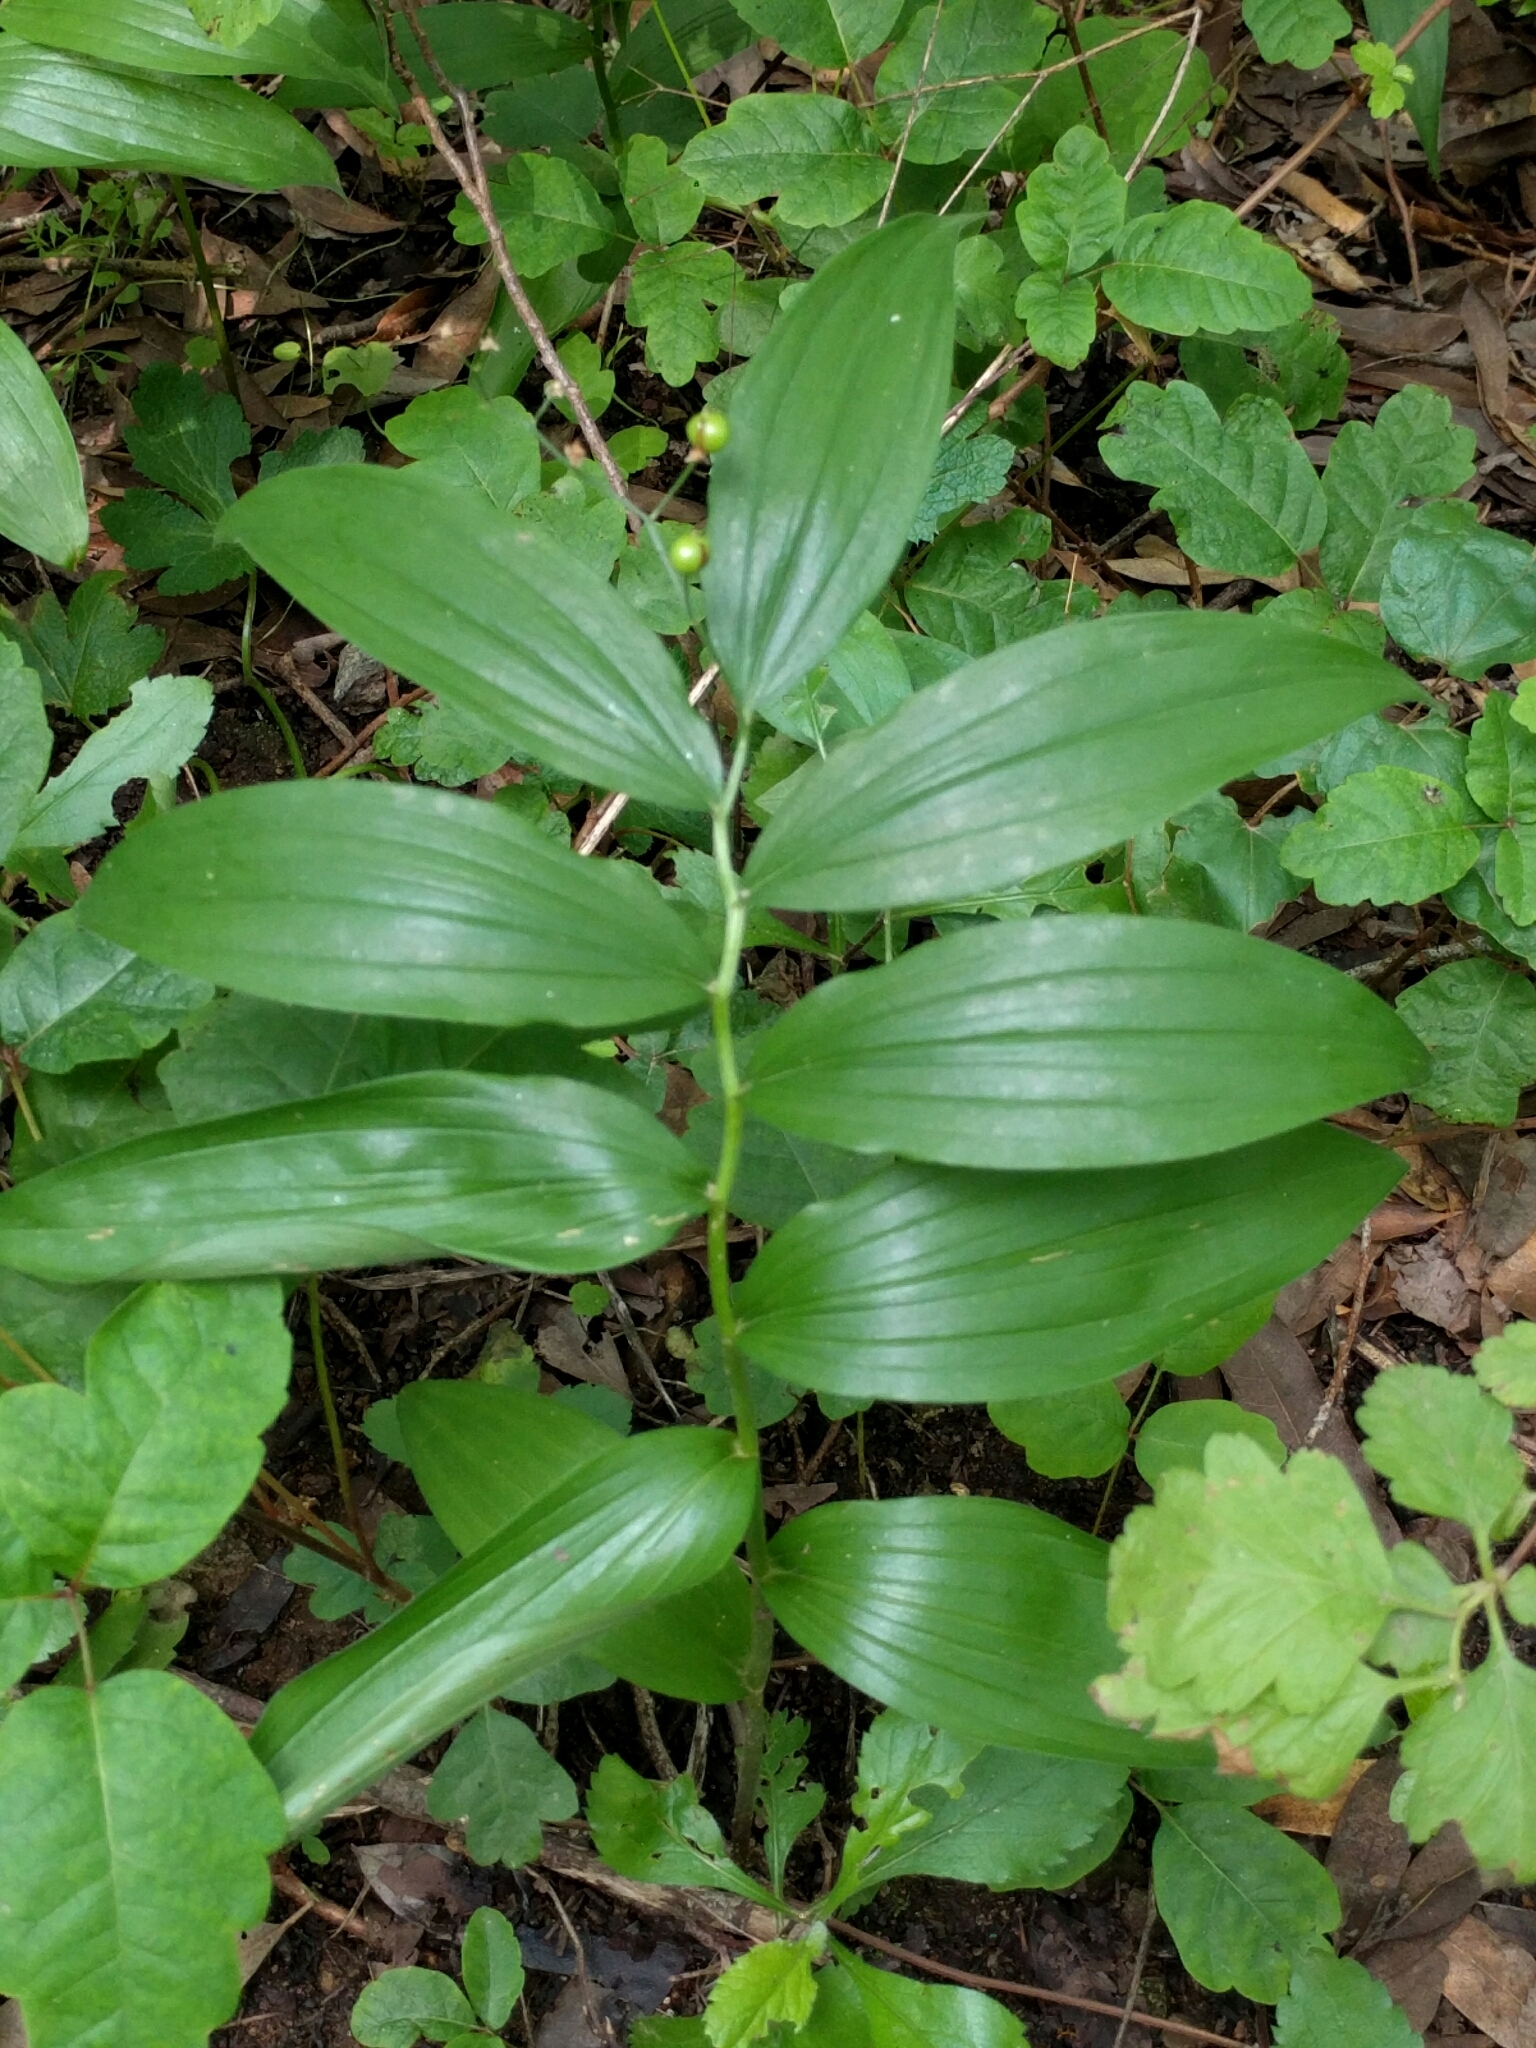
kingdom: Plantae
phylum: Tracheophyta
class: Liliopsida
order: Asparagales
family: Asparagaceae
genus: Maianthemum
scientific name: Maianthemum stellatum
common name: Little false solomon's seal
